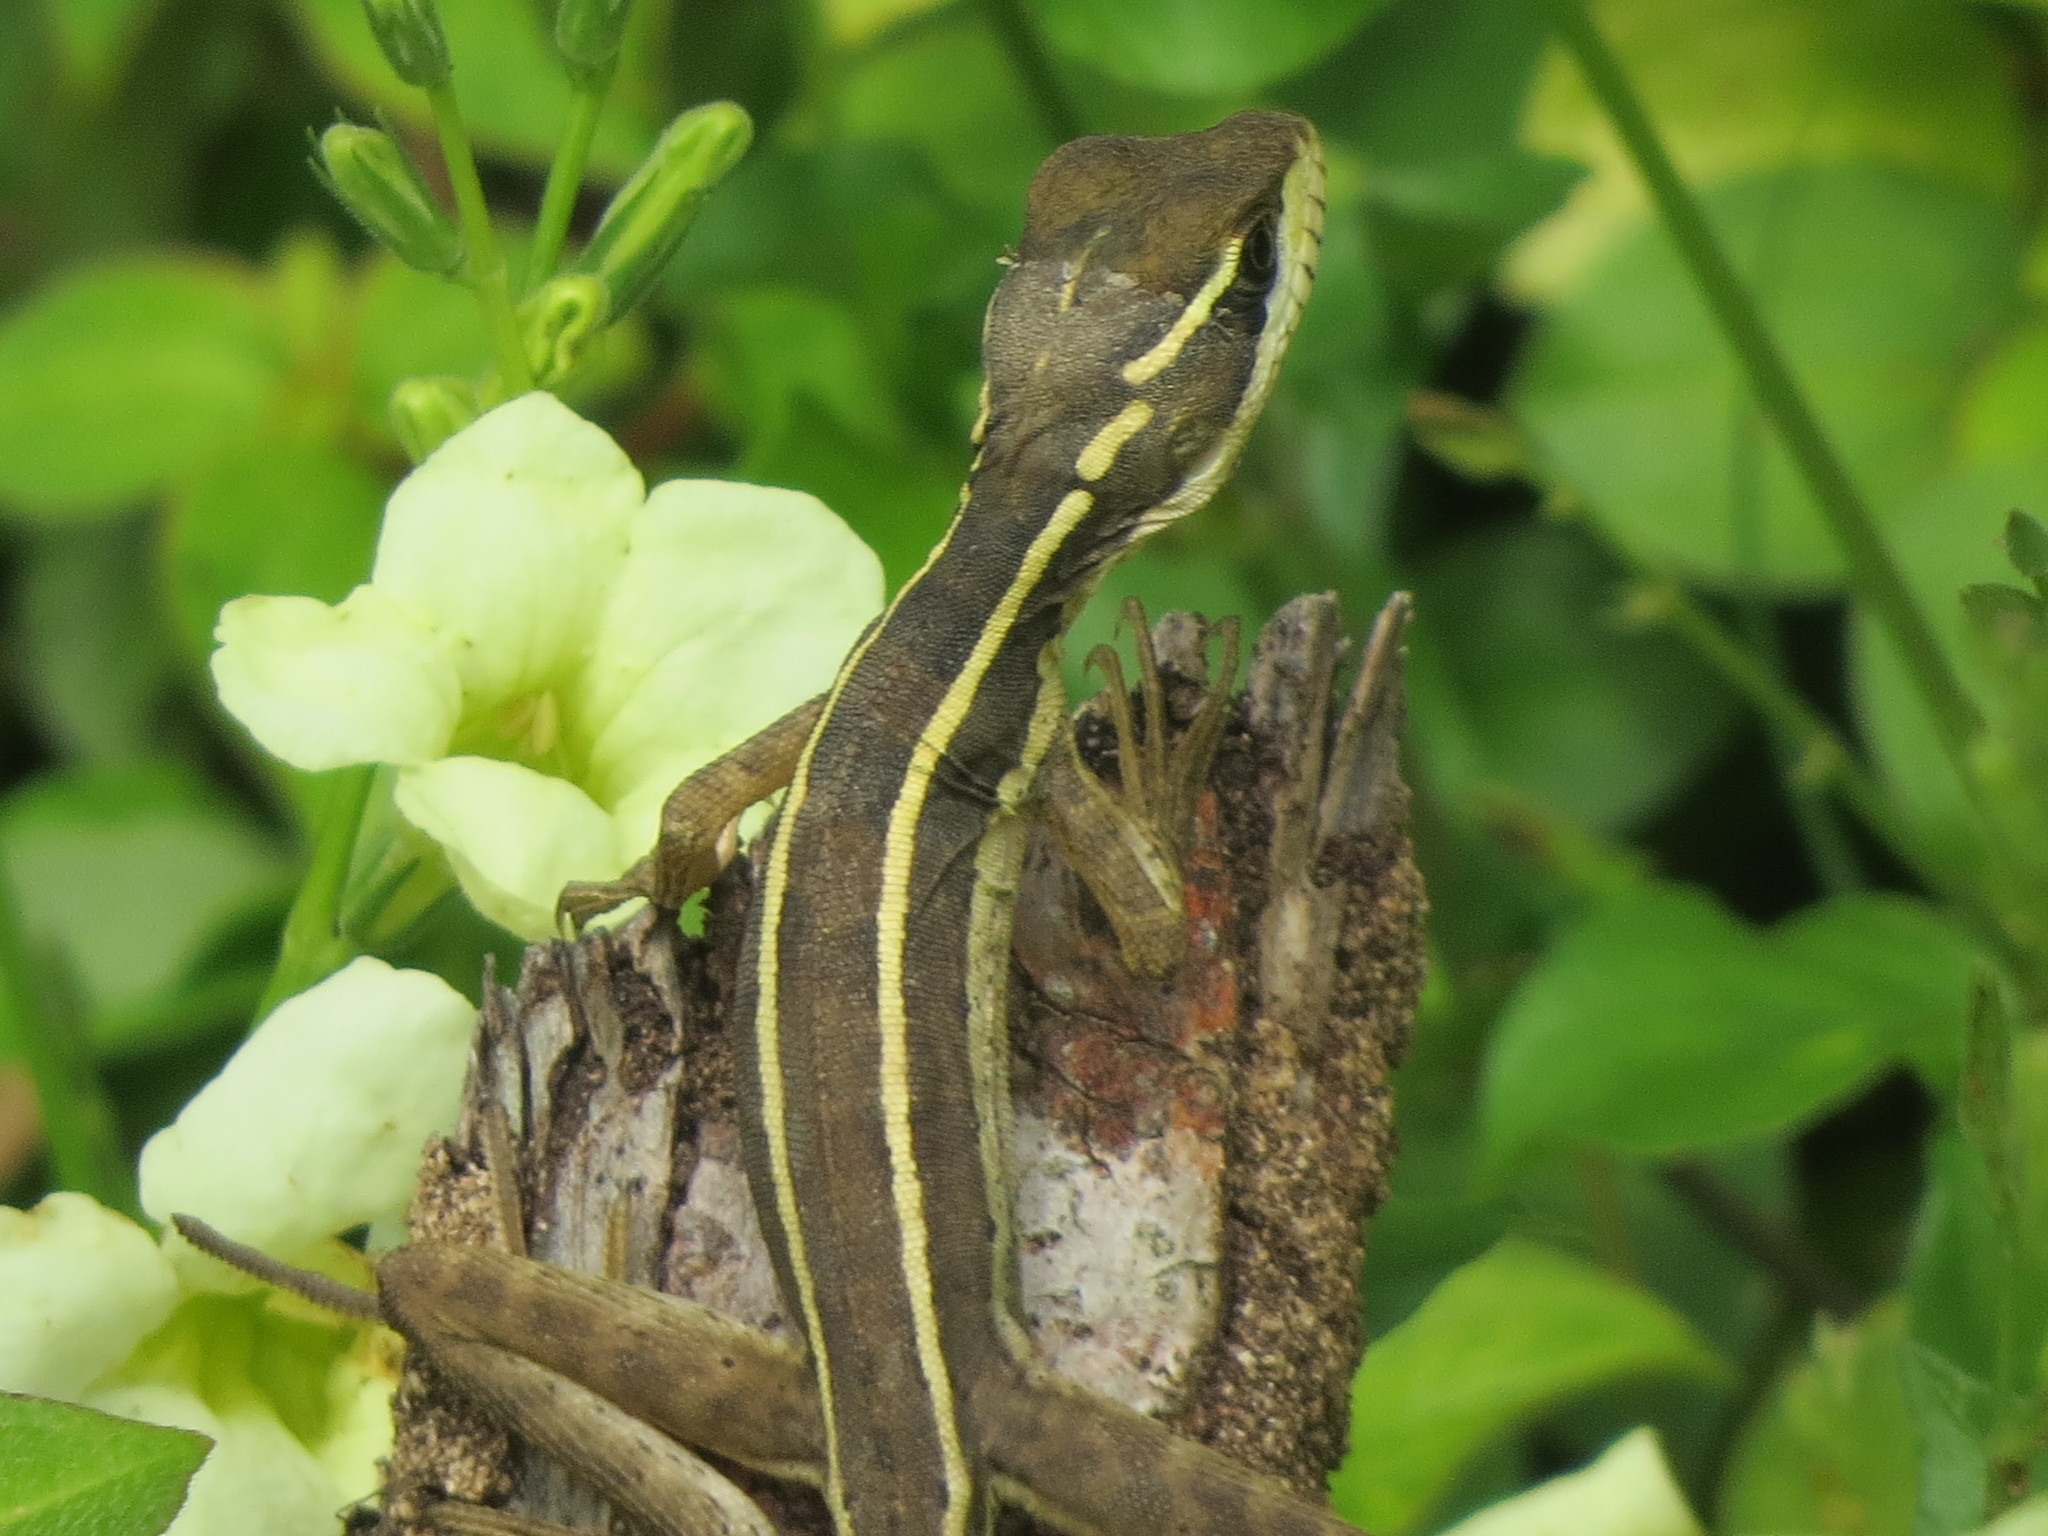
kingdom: Animalia
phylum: Chordata
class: Squamata
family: Corytophanidae
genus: Basiliscus
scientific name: Basiliscus vittatus
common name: Brown basilisk
